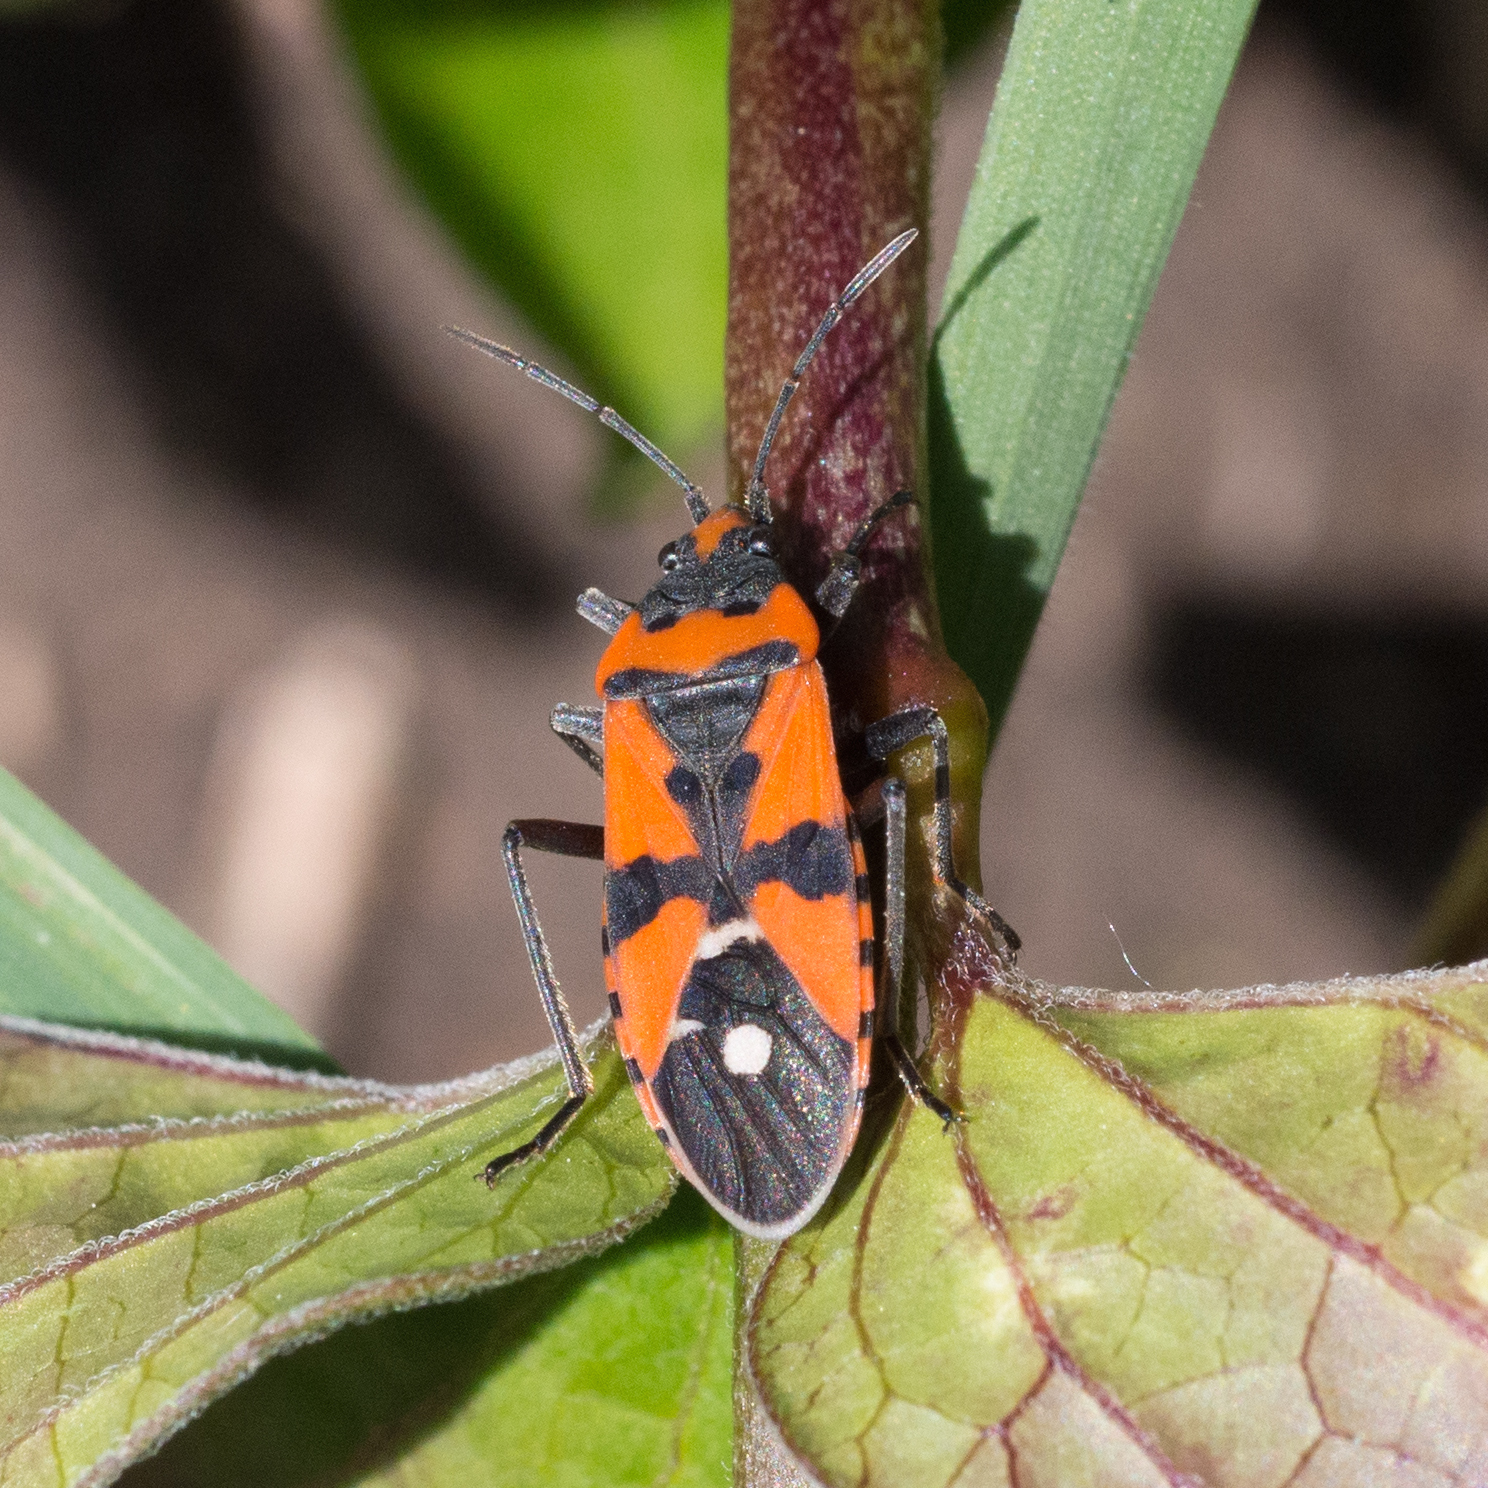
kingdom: Animalia
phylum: Arthropoda
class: Insecta
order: Hemiptera
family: Lygaeidae
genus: Lygaeus
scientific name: Lygaeus equestris
